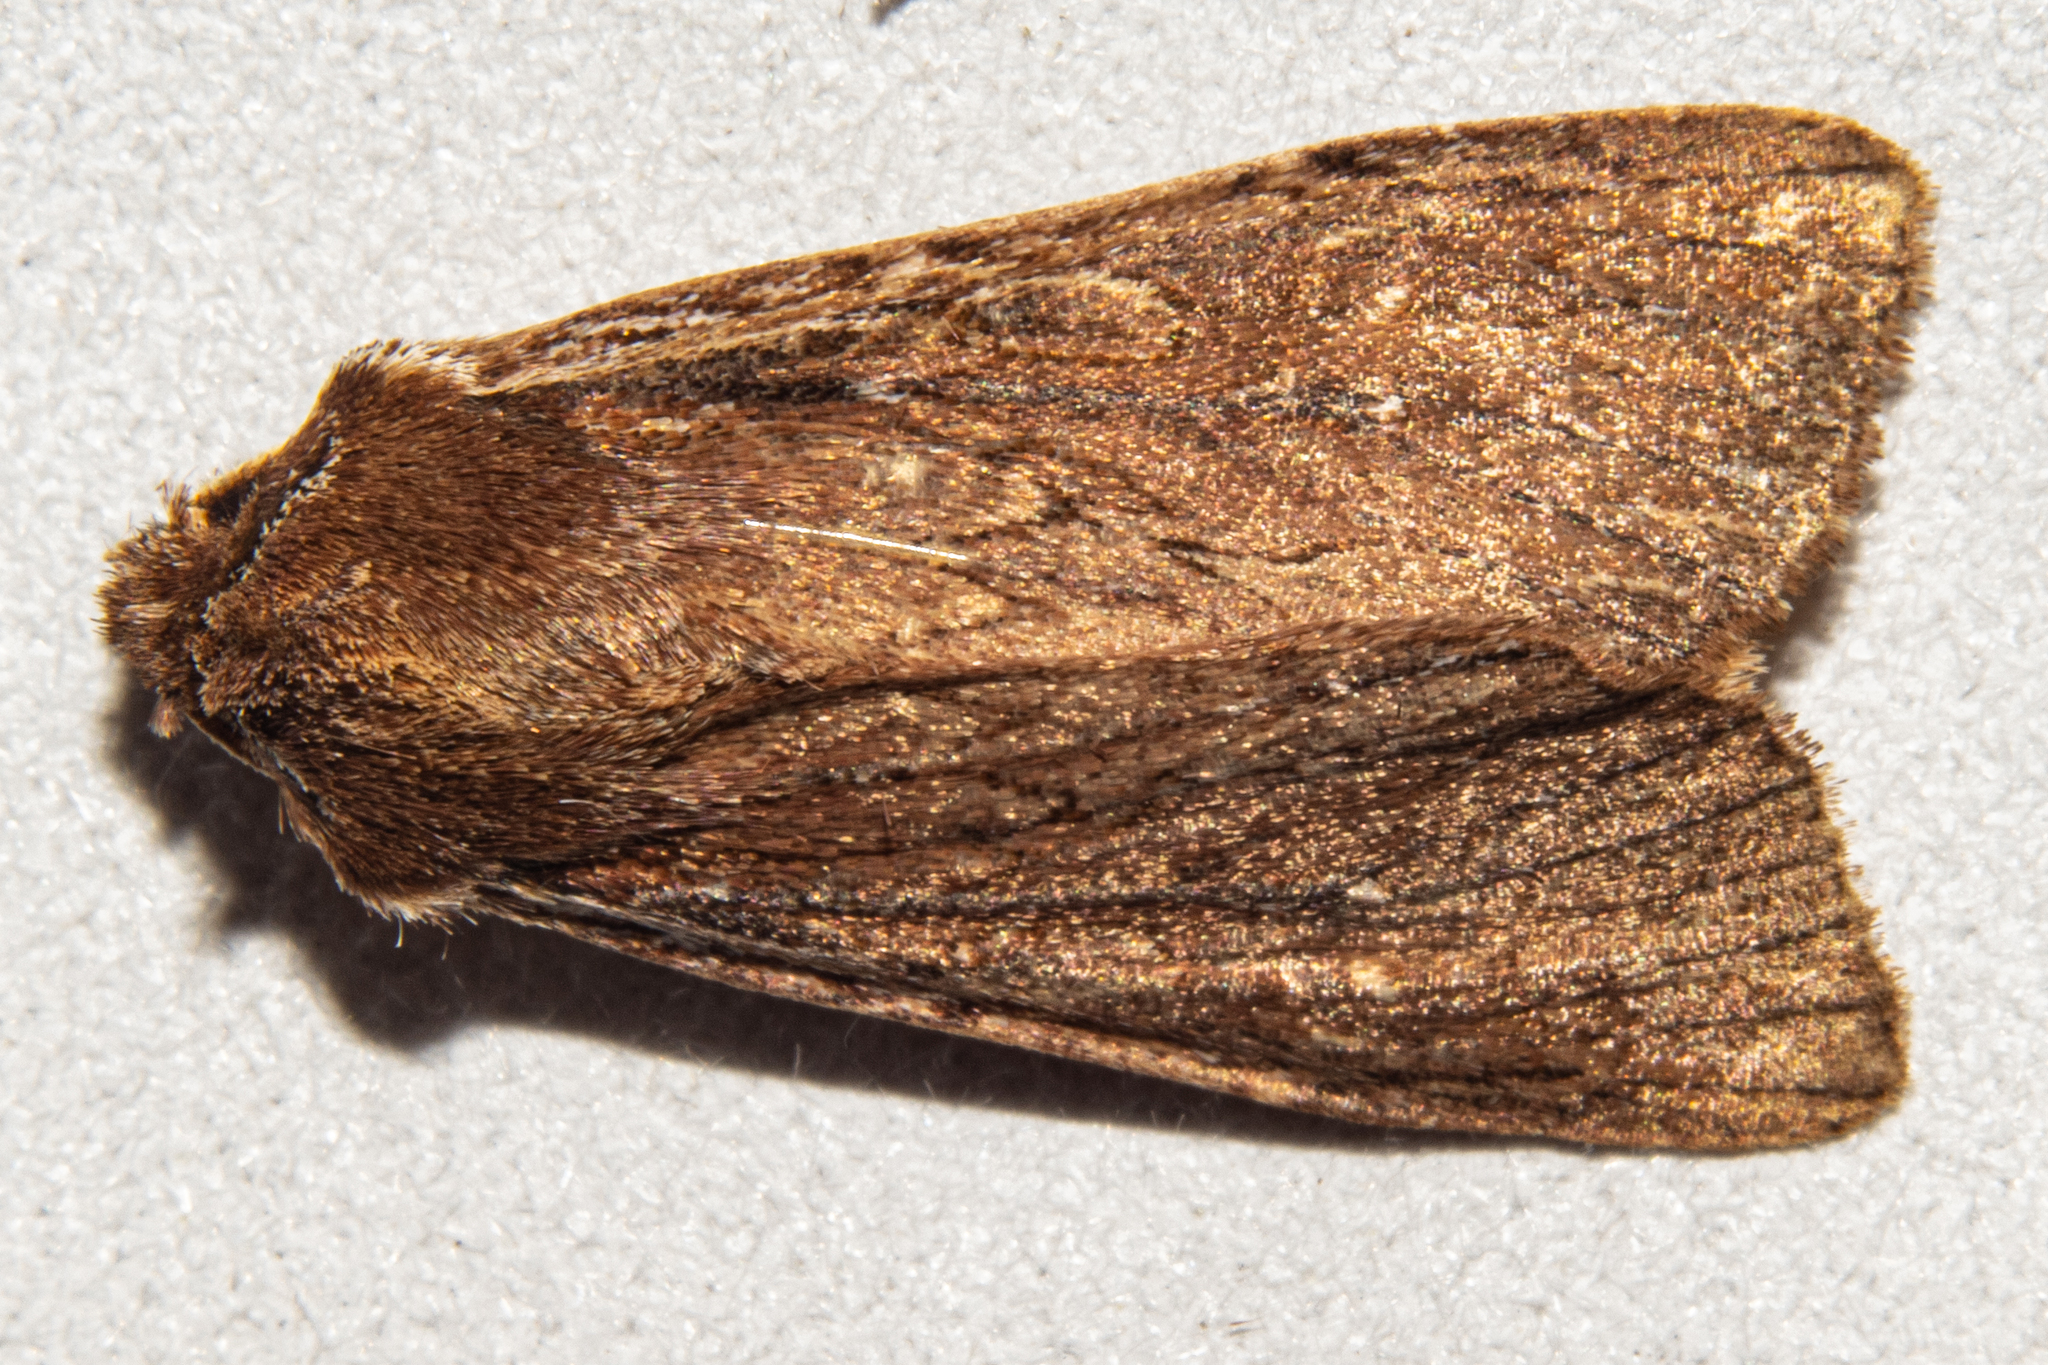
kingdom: Animalia
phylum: Arthropoda
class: Insecta
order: Lepidoptera
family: Noctuidae
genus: Ichneutica
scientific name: Ichneutica
